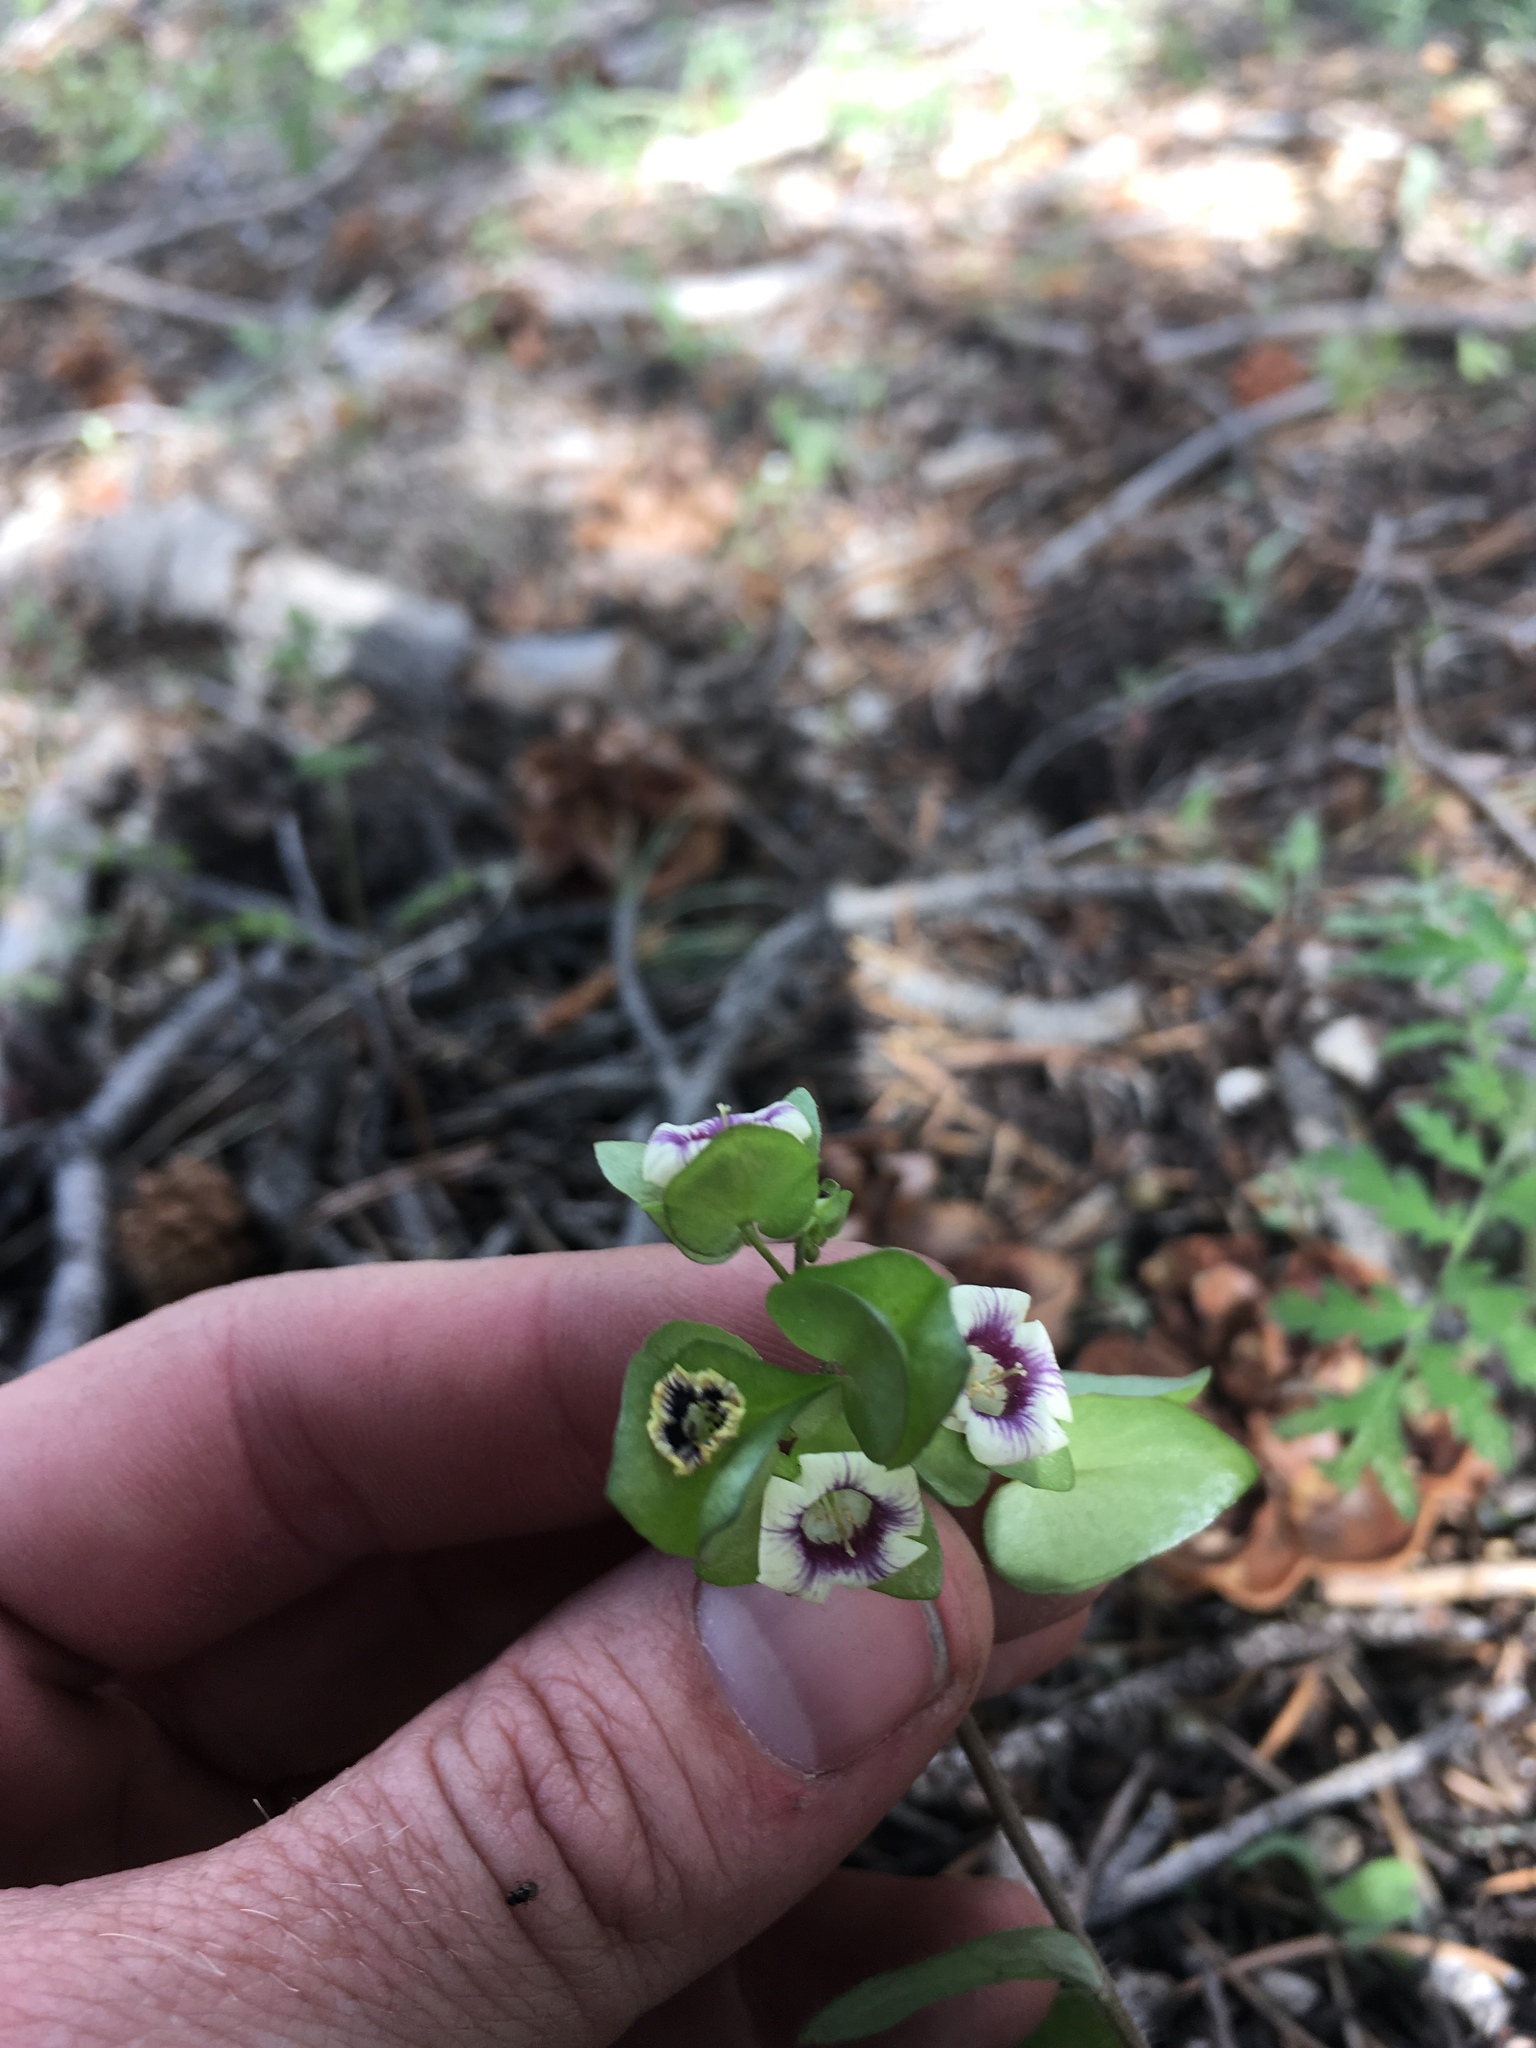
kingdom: Plantae
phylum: Tracheophyta
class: Magnoliopsida
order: Boraginales
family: Hydrophyllaceae
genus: Tricardia
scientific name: Tricardia watsonii
